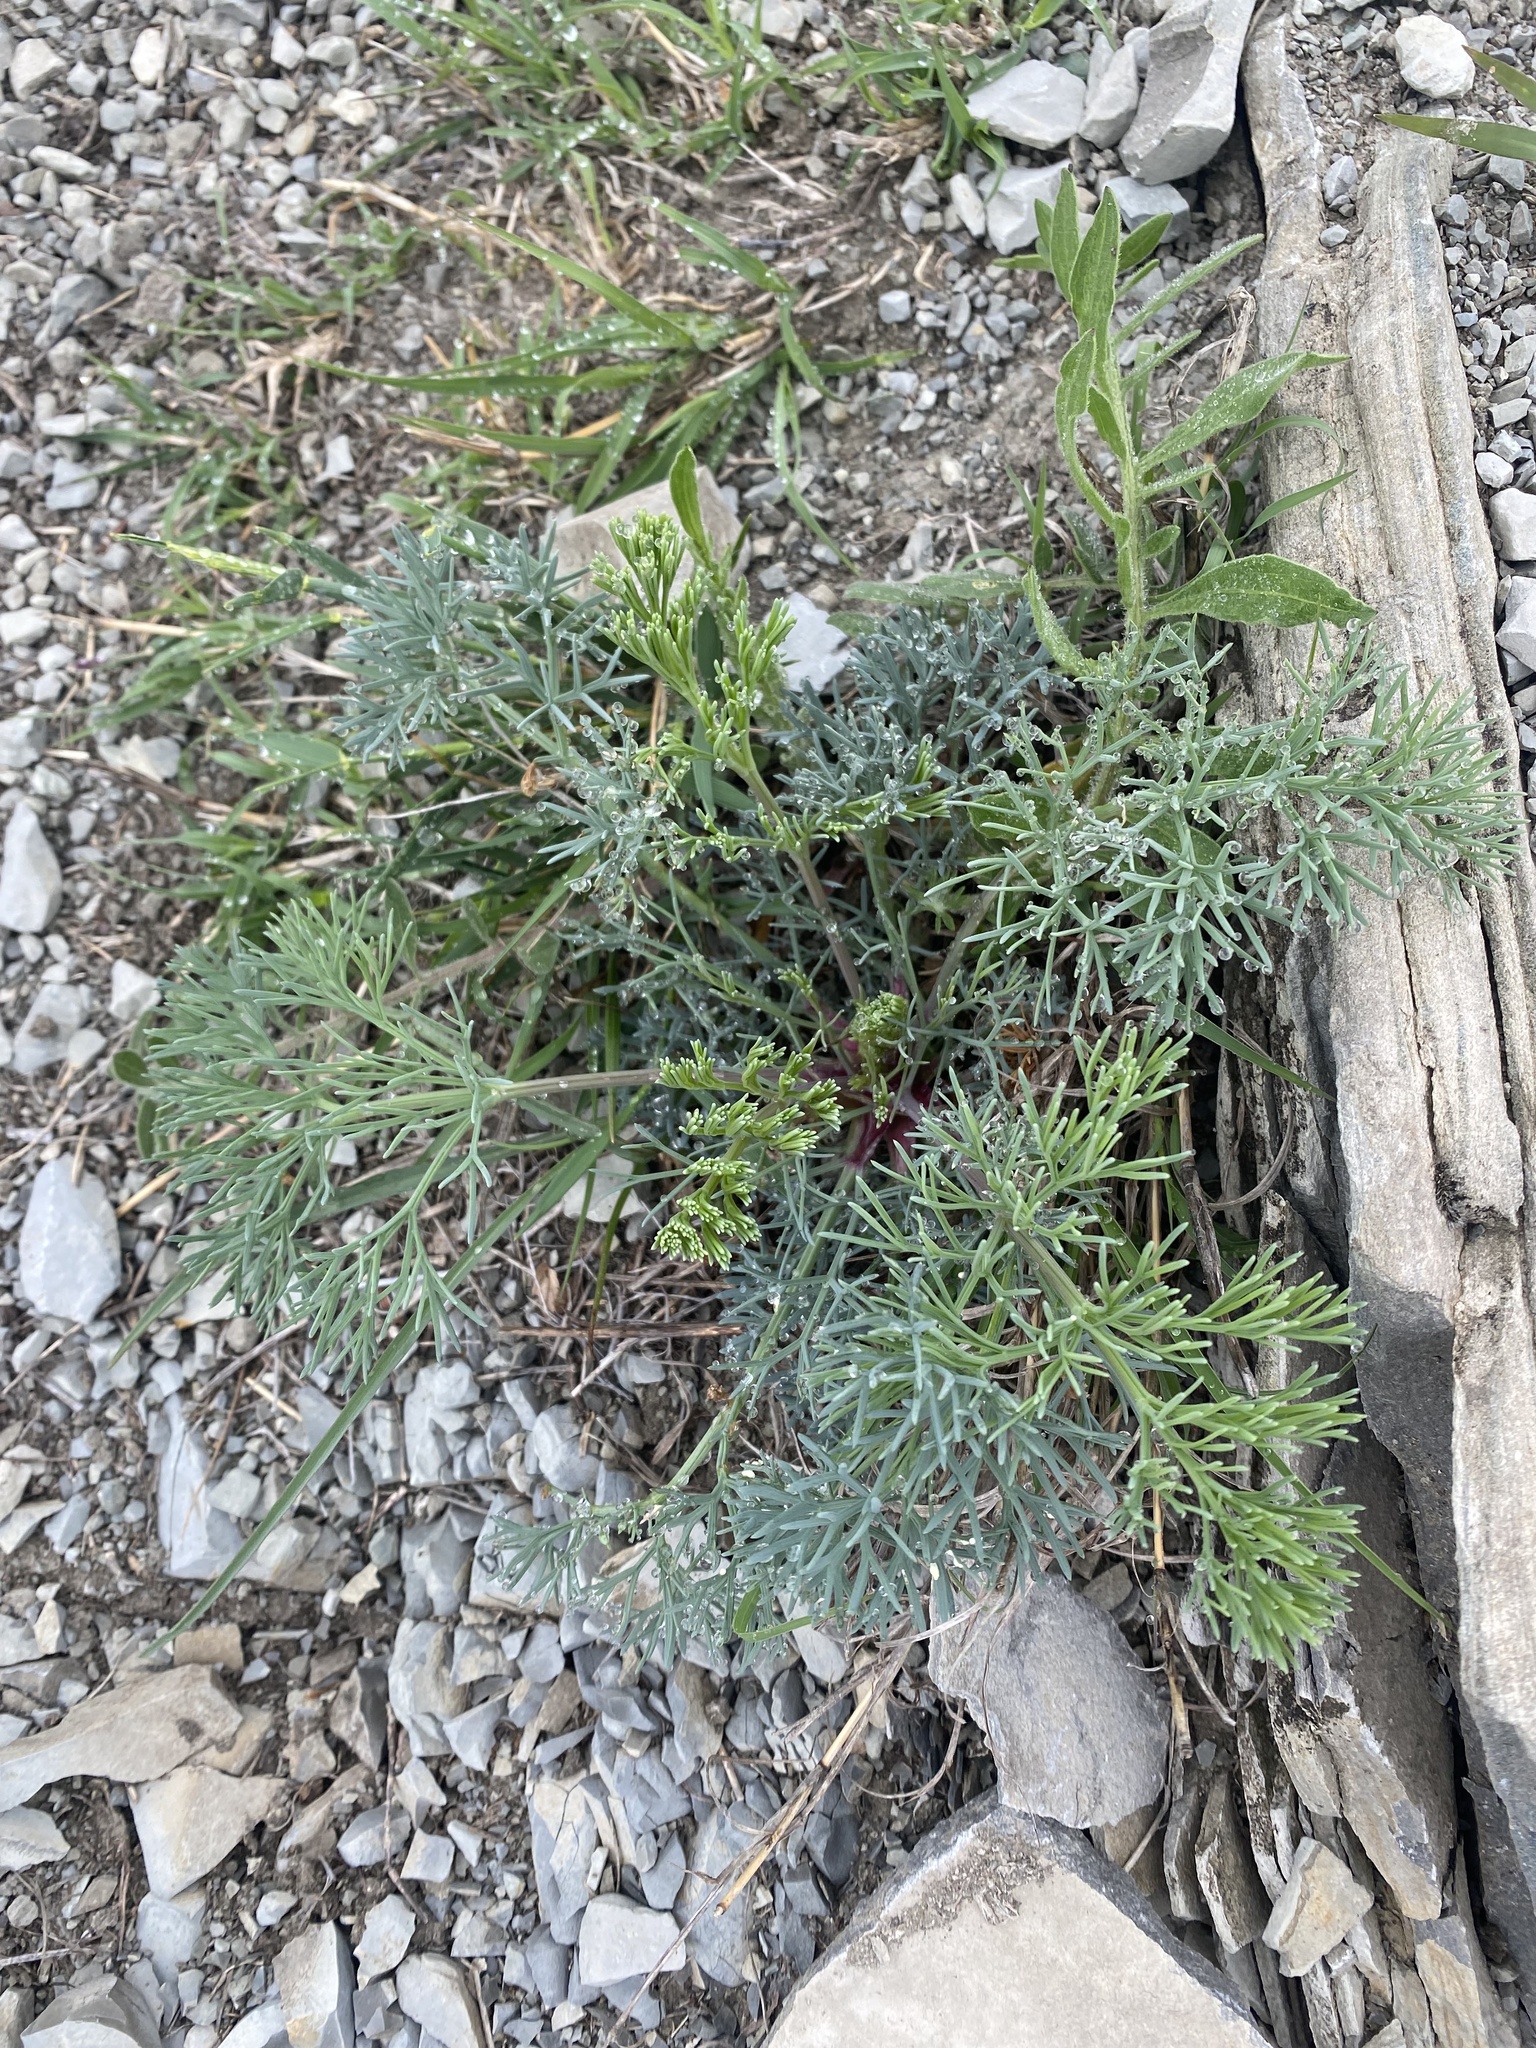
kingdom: Plantae
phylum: Tracheophyta
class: Magnoliopsida
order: Apiales
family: Apiaceae
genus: Seseli
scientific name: Seseli ponticum
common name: Pontic seseli
